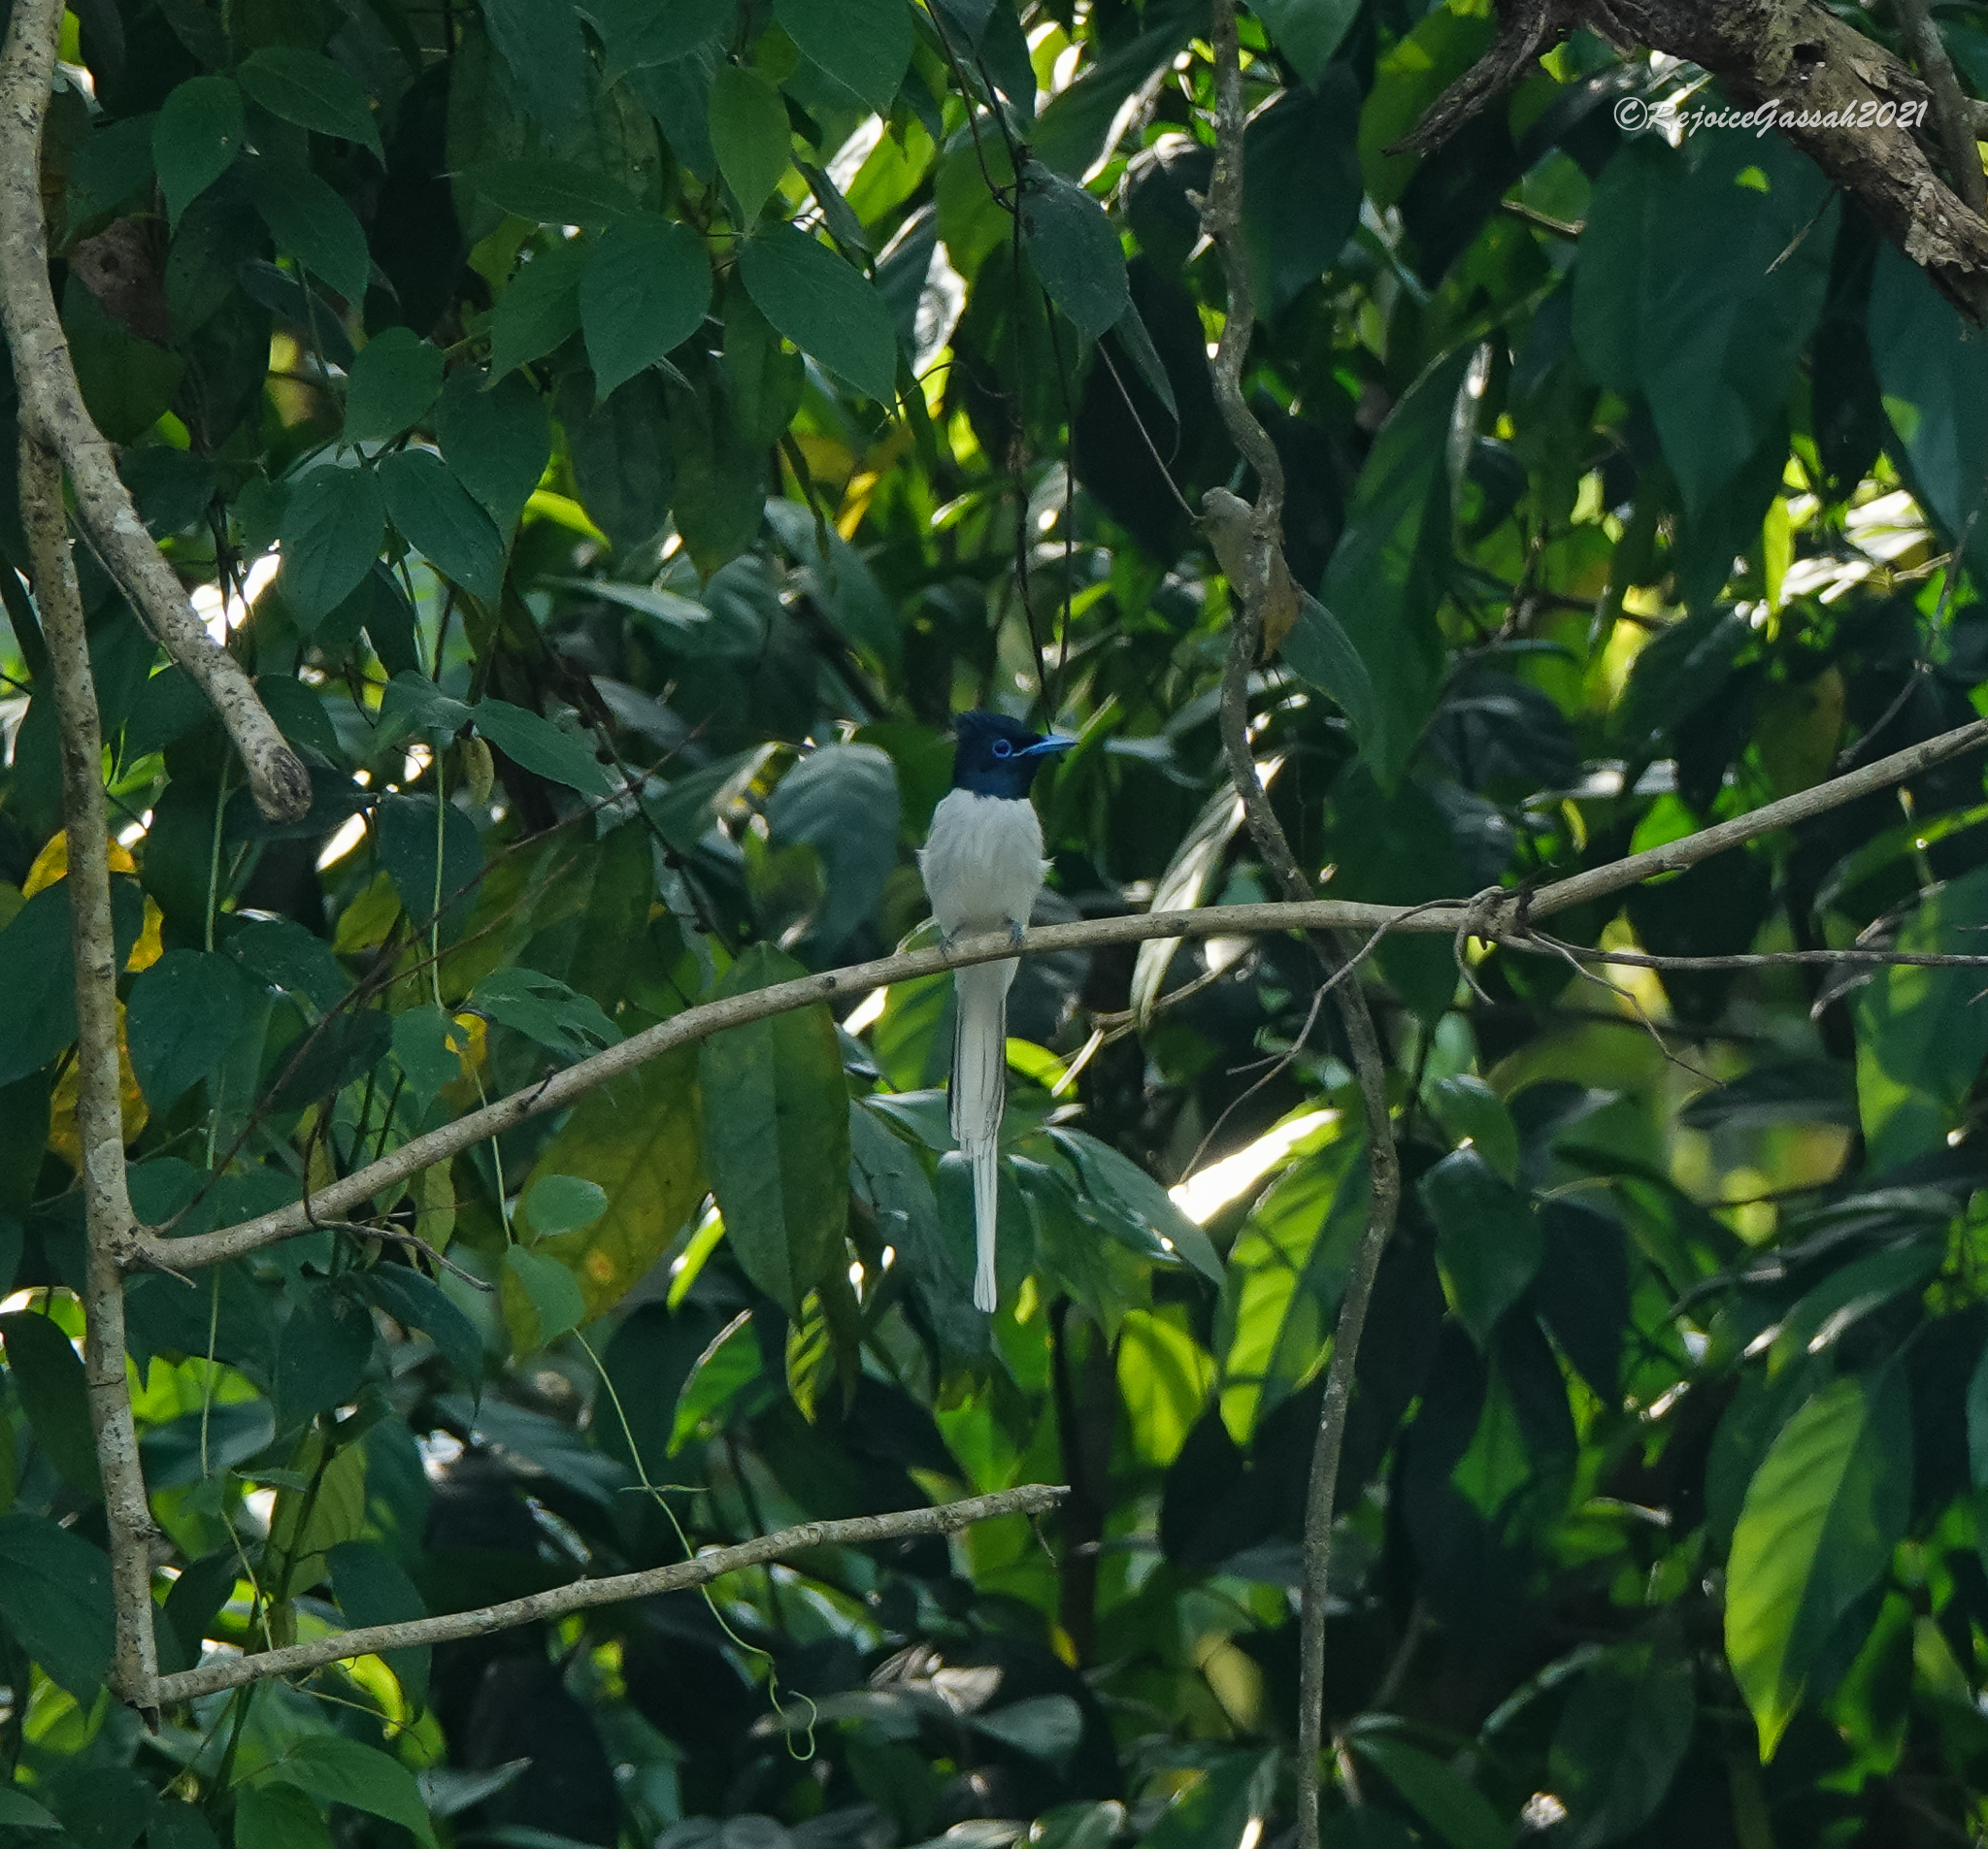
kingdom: Animalia
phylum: Chordata
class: Aves
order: Passeriformes
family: Monarchidae
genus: Terpsiphone
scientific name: Terpsiphone paradisi
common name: Indian paradise flycatcher
